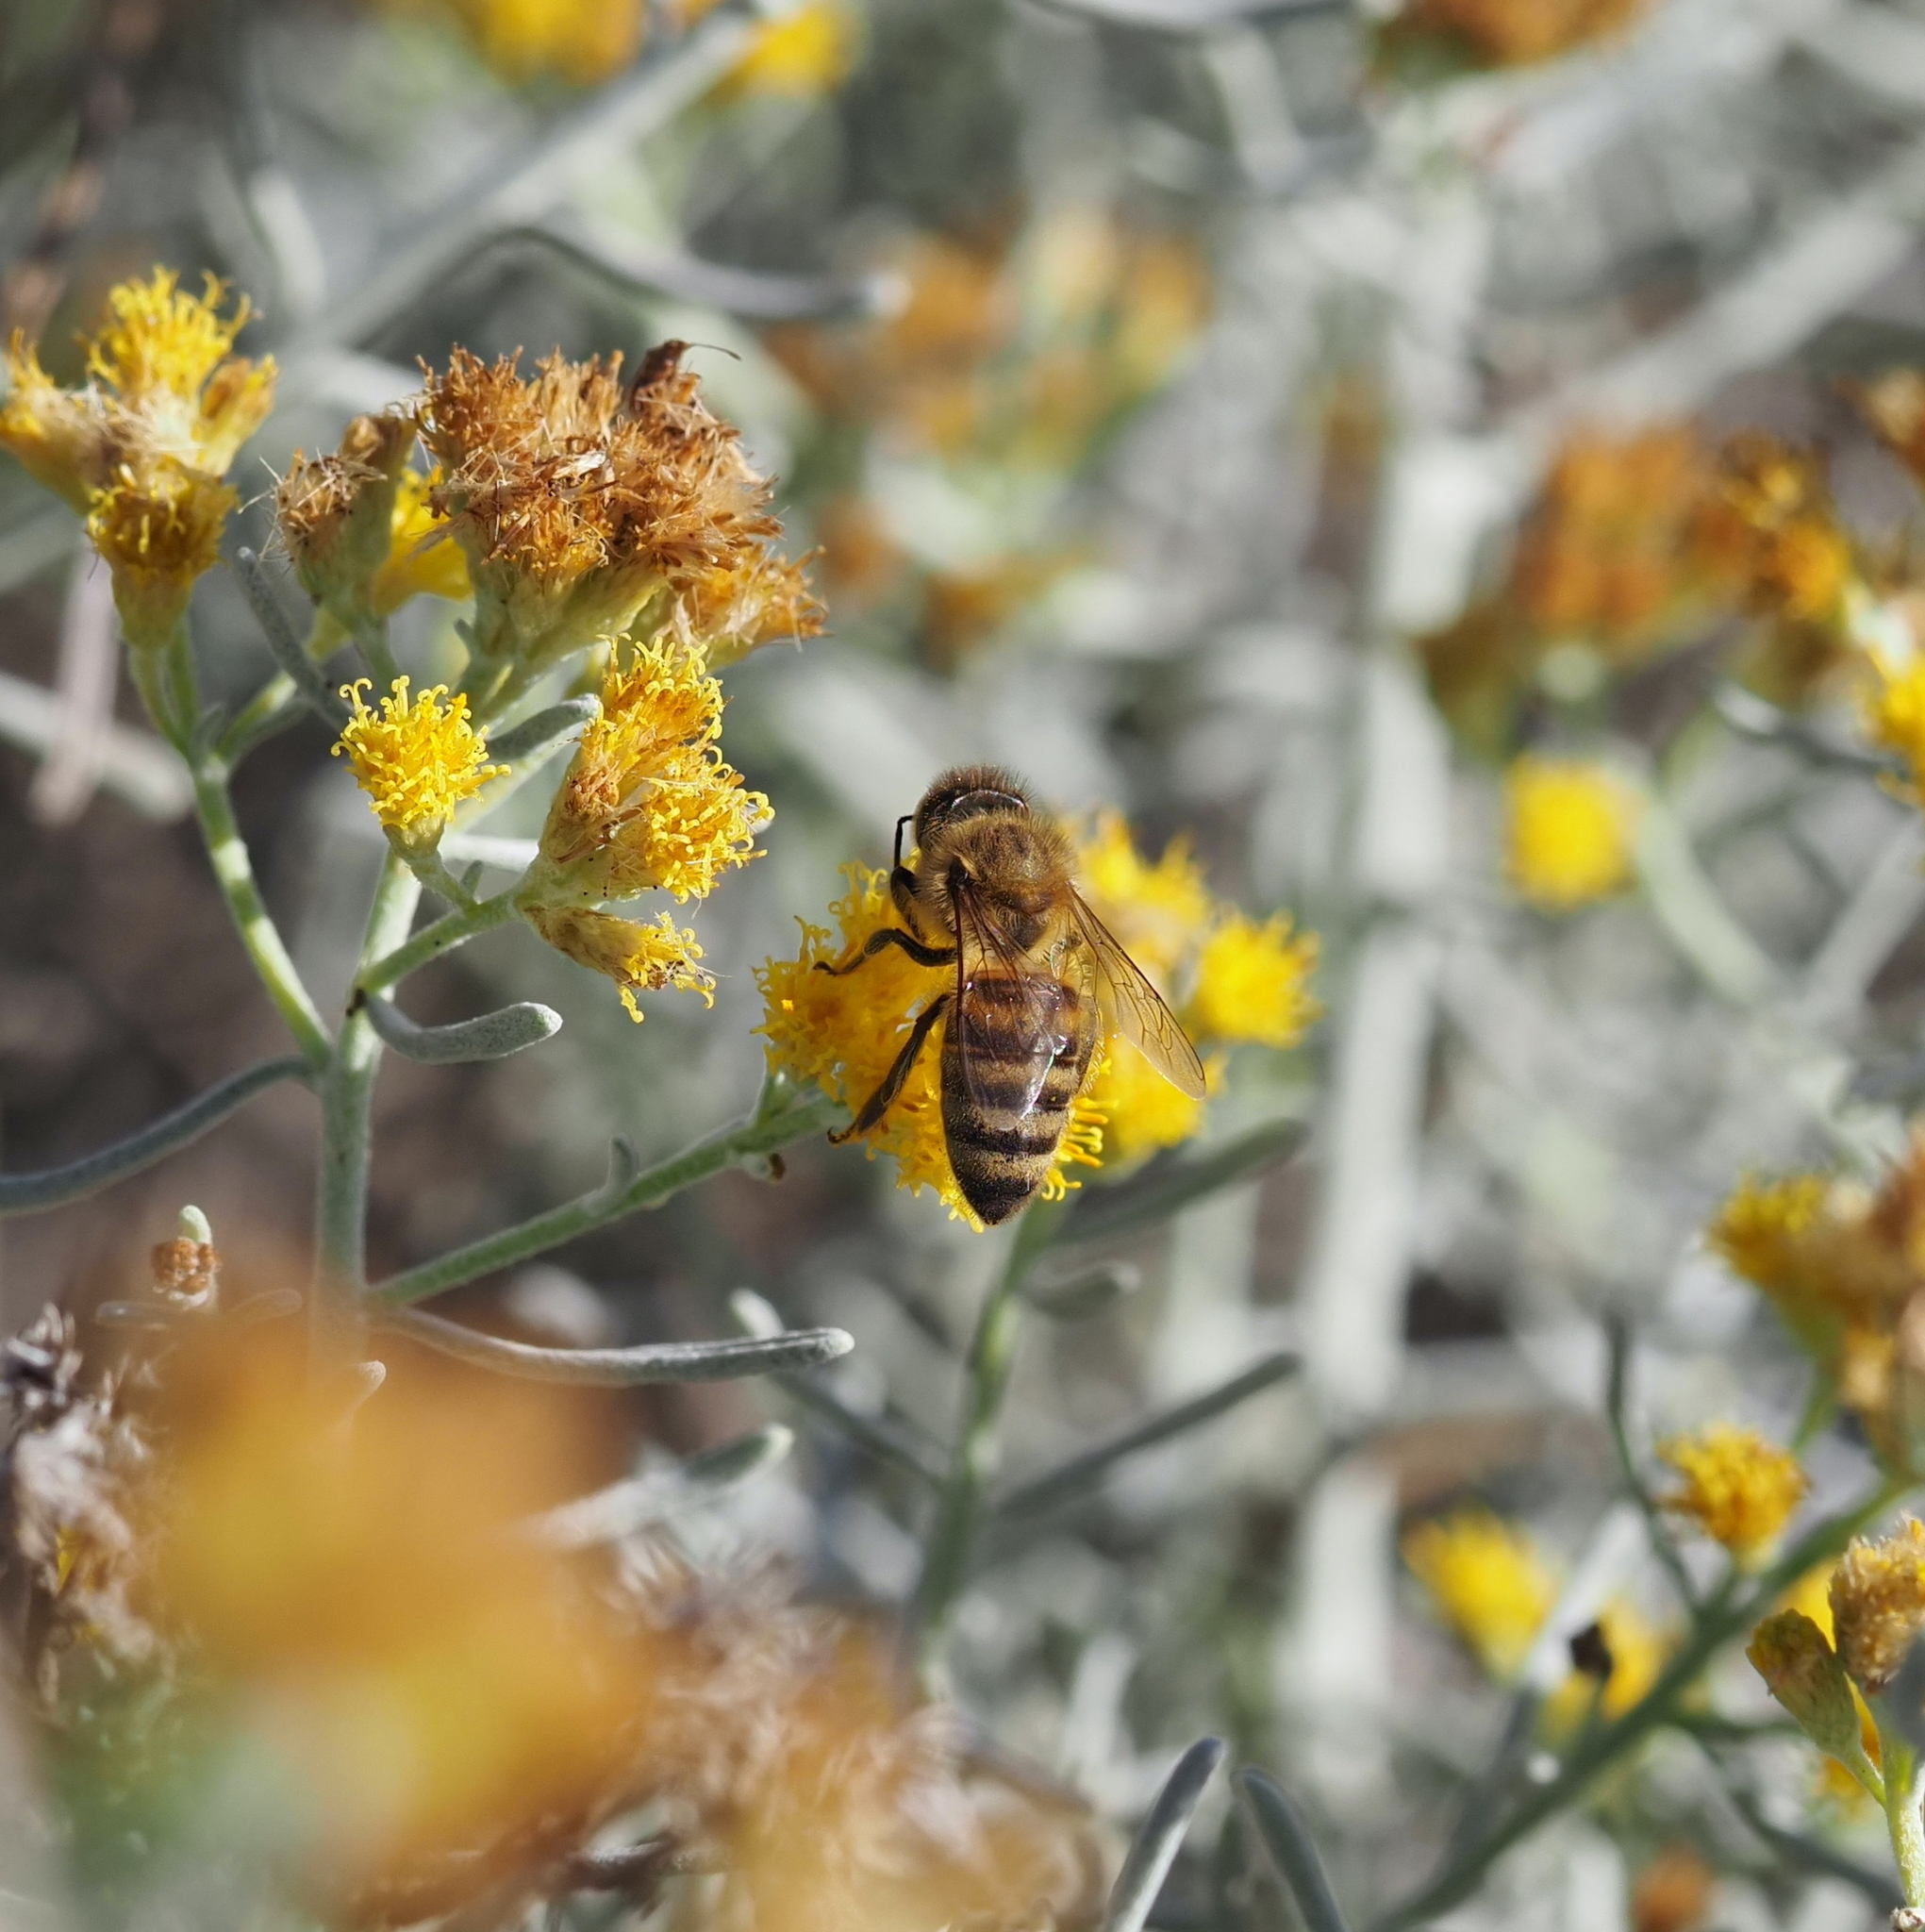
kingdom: Animalia
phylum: Arthropoda
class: Insecta
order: Hymenoptera
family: Apidae
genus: Apis
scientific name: Apis mellifera
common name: Honey bee
